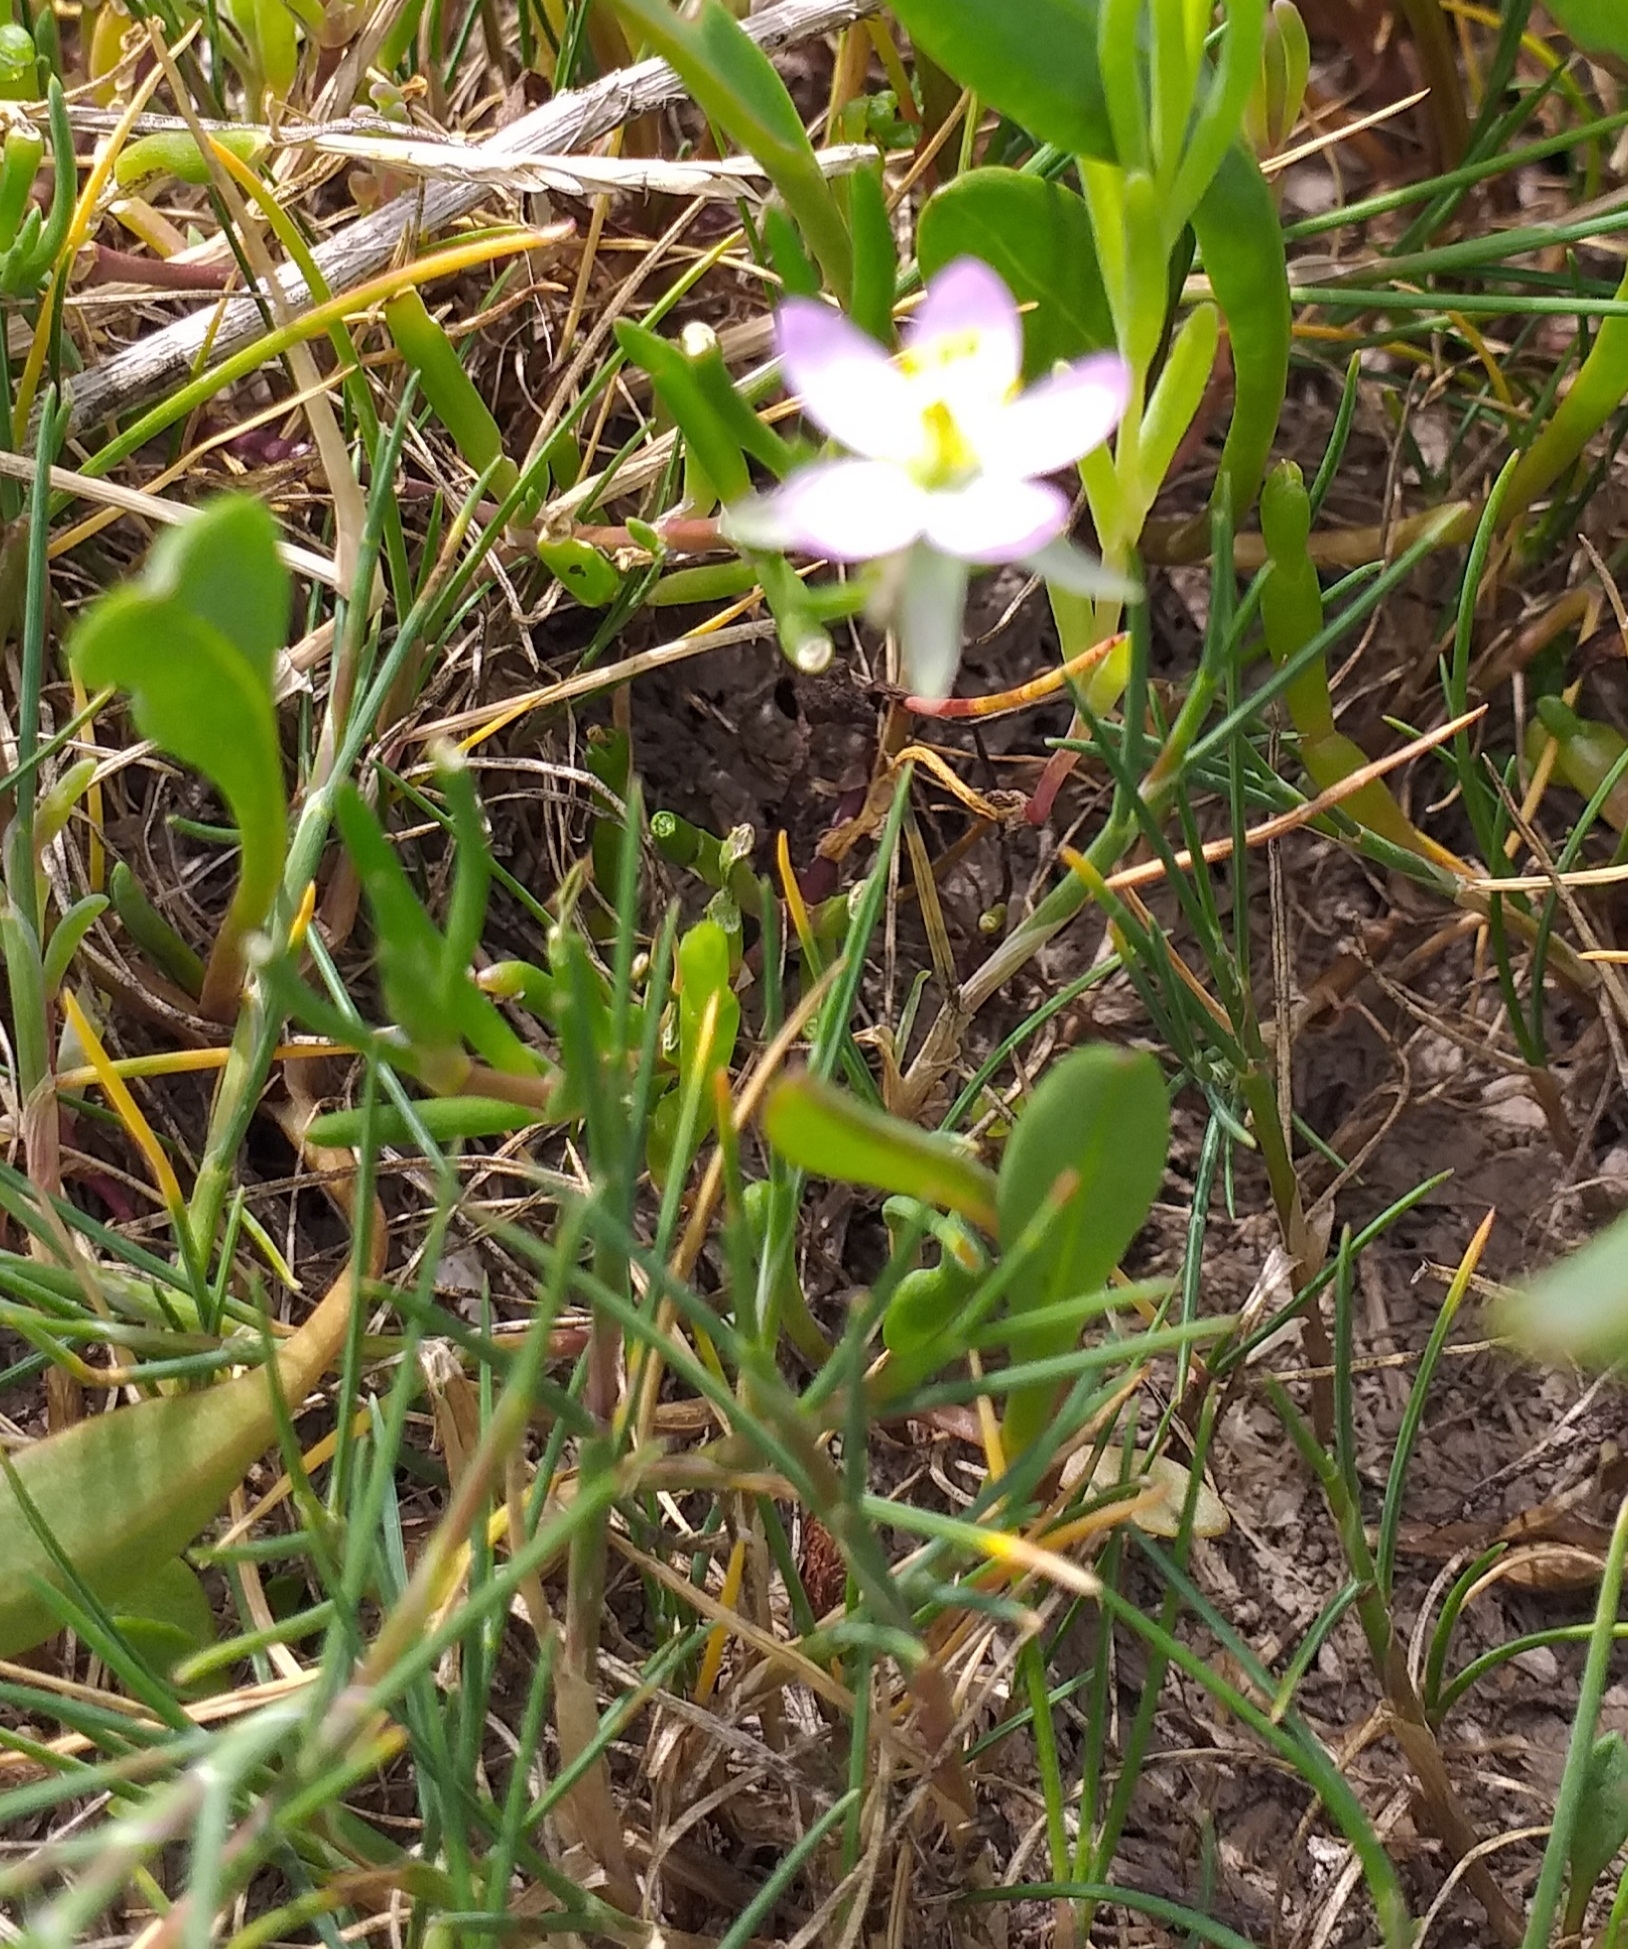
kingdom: Plantae
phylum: Tracheophyta
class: Magnoliopsida
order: Caryophyllales
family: Caryophyllaceae
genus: Spergularia
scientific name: Spergularia media
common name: Greater sea-spurrey
